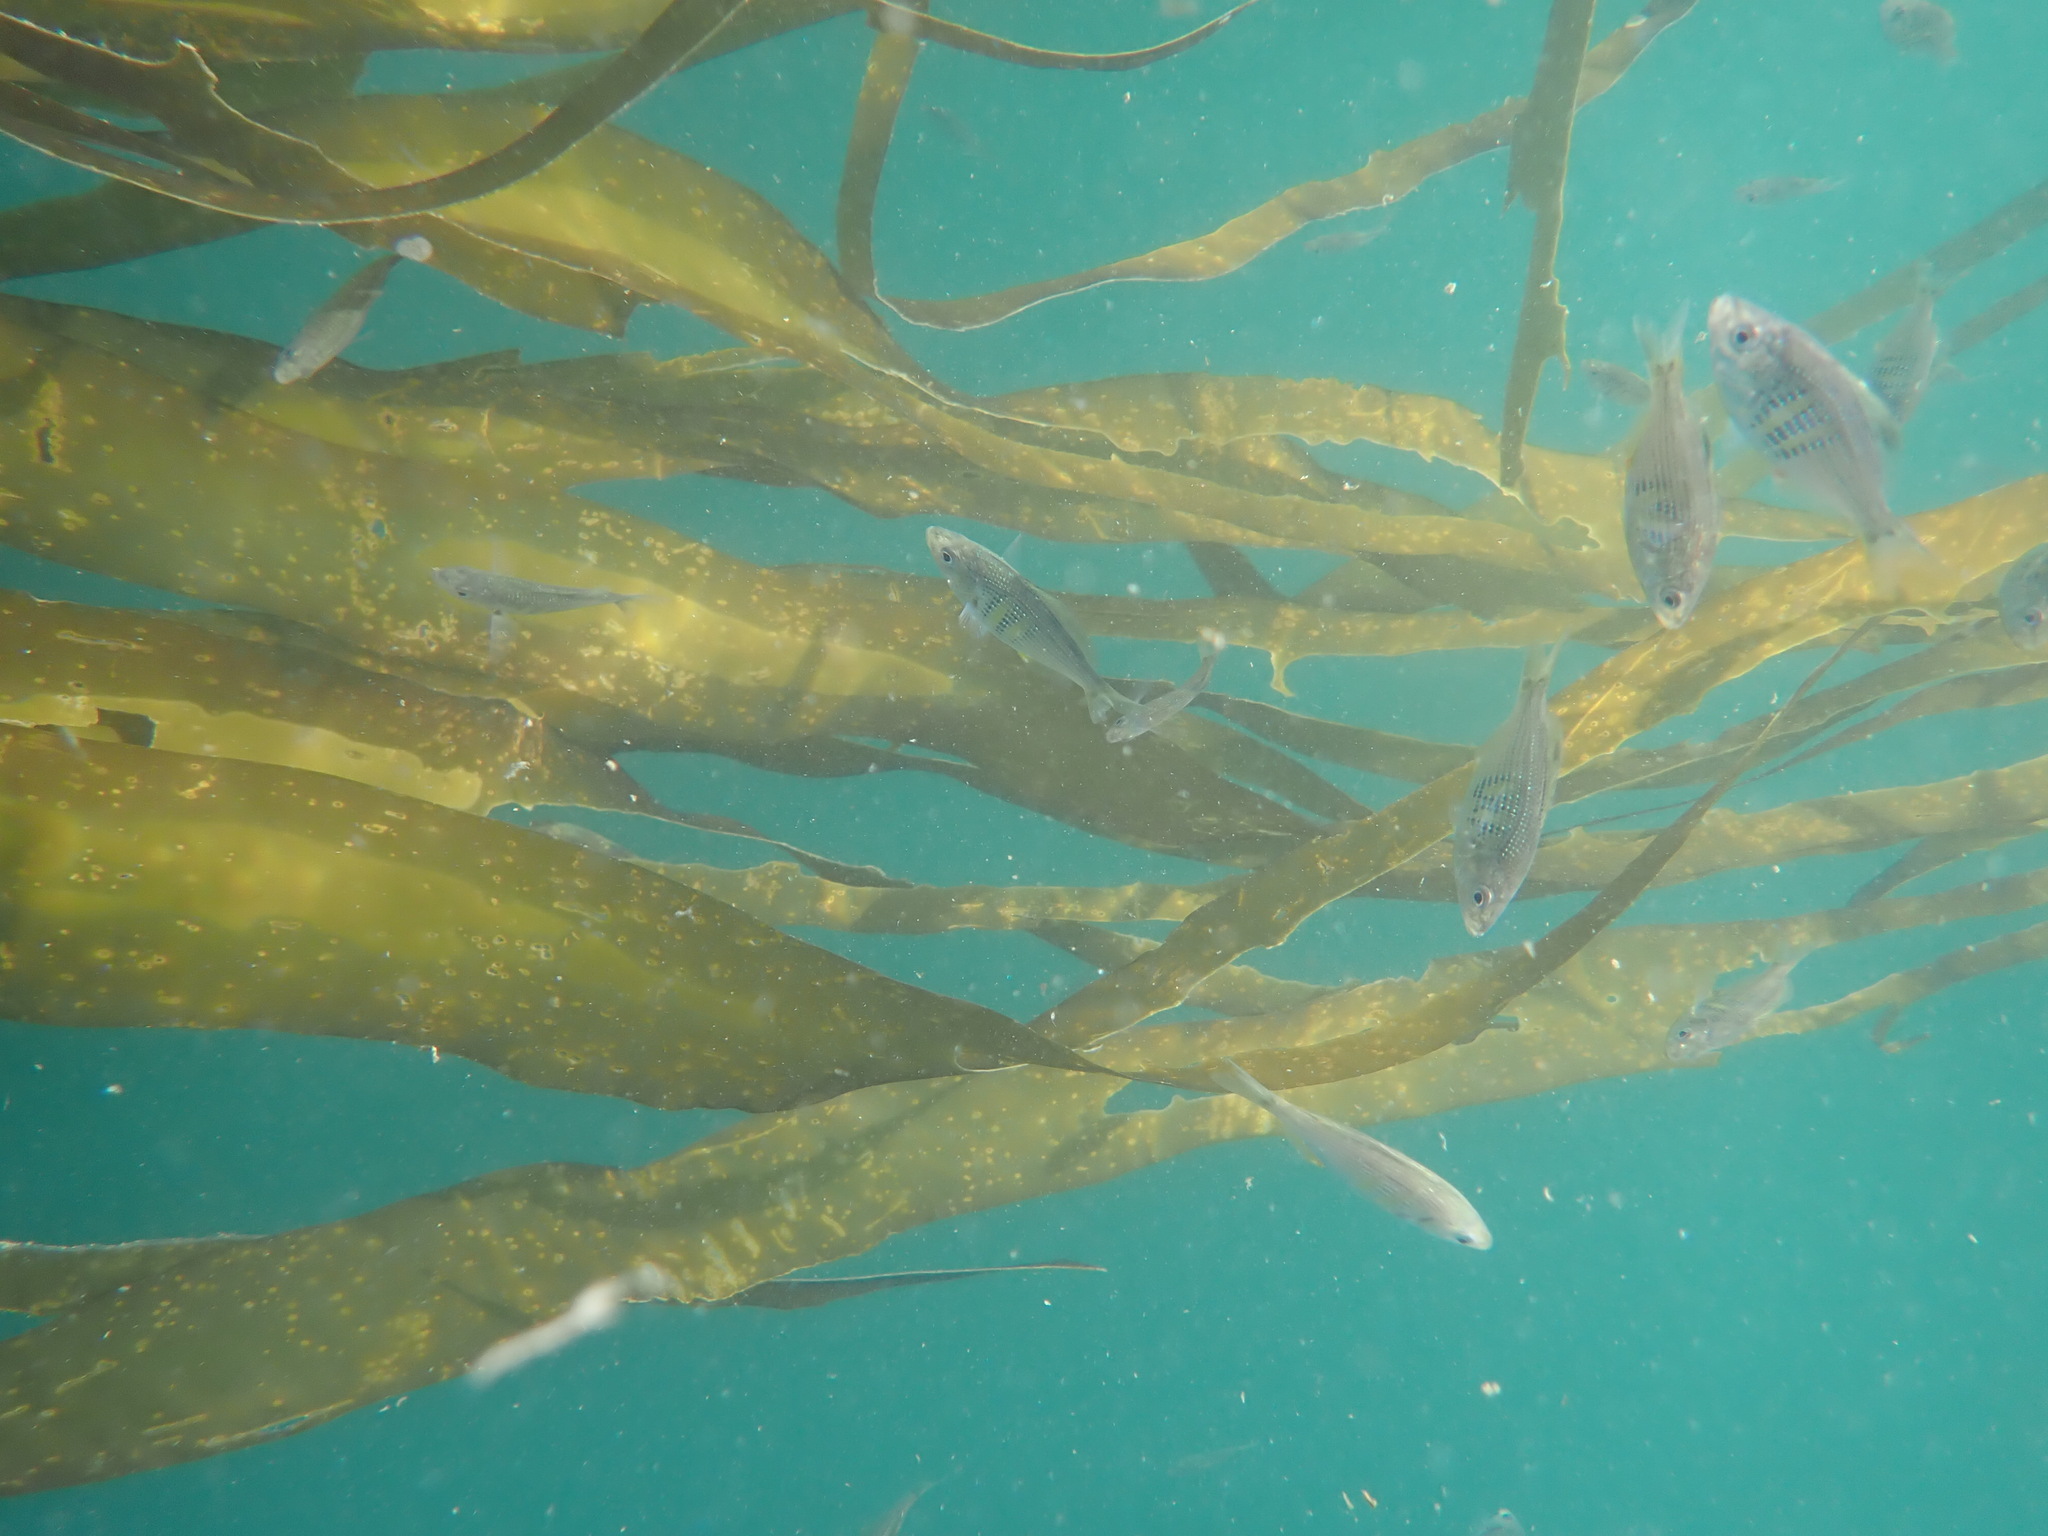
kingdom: Chromista
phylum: Ochrophyta
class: Phaeophyceae
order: Laminariales
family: Laminariaceae
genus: Nereocystis
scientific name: Nereocystis luetkeana
